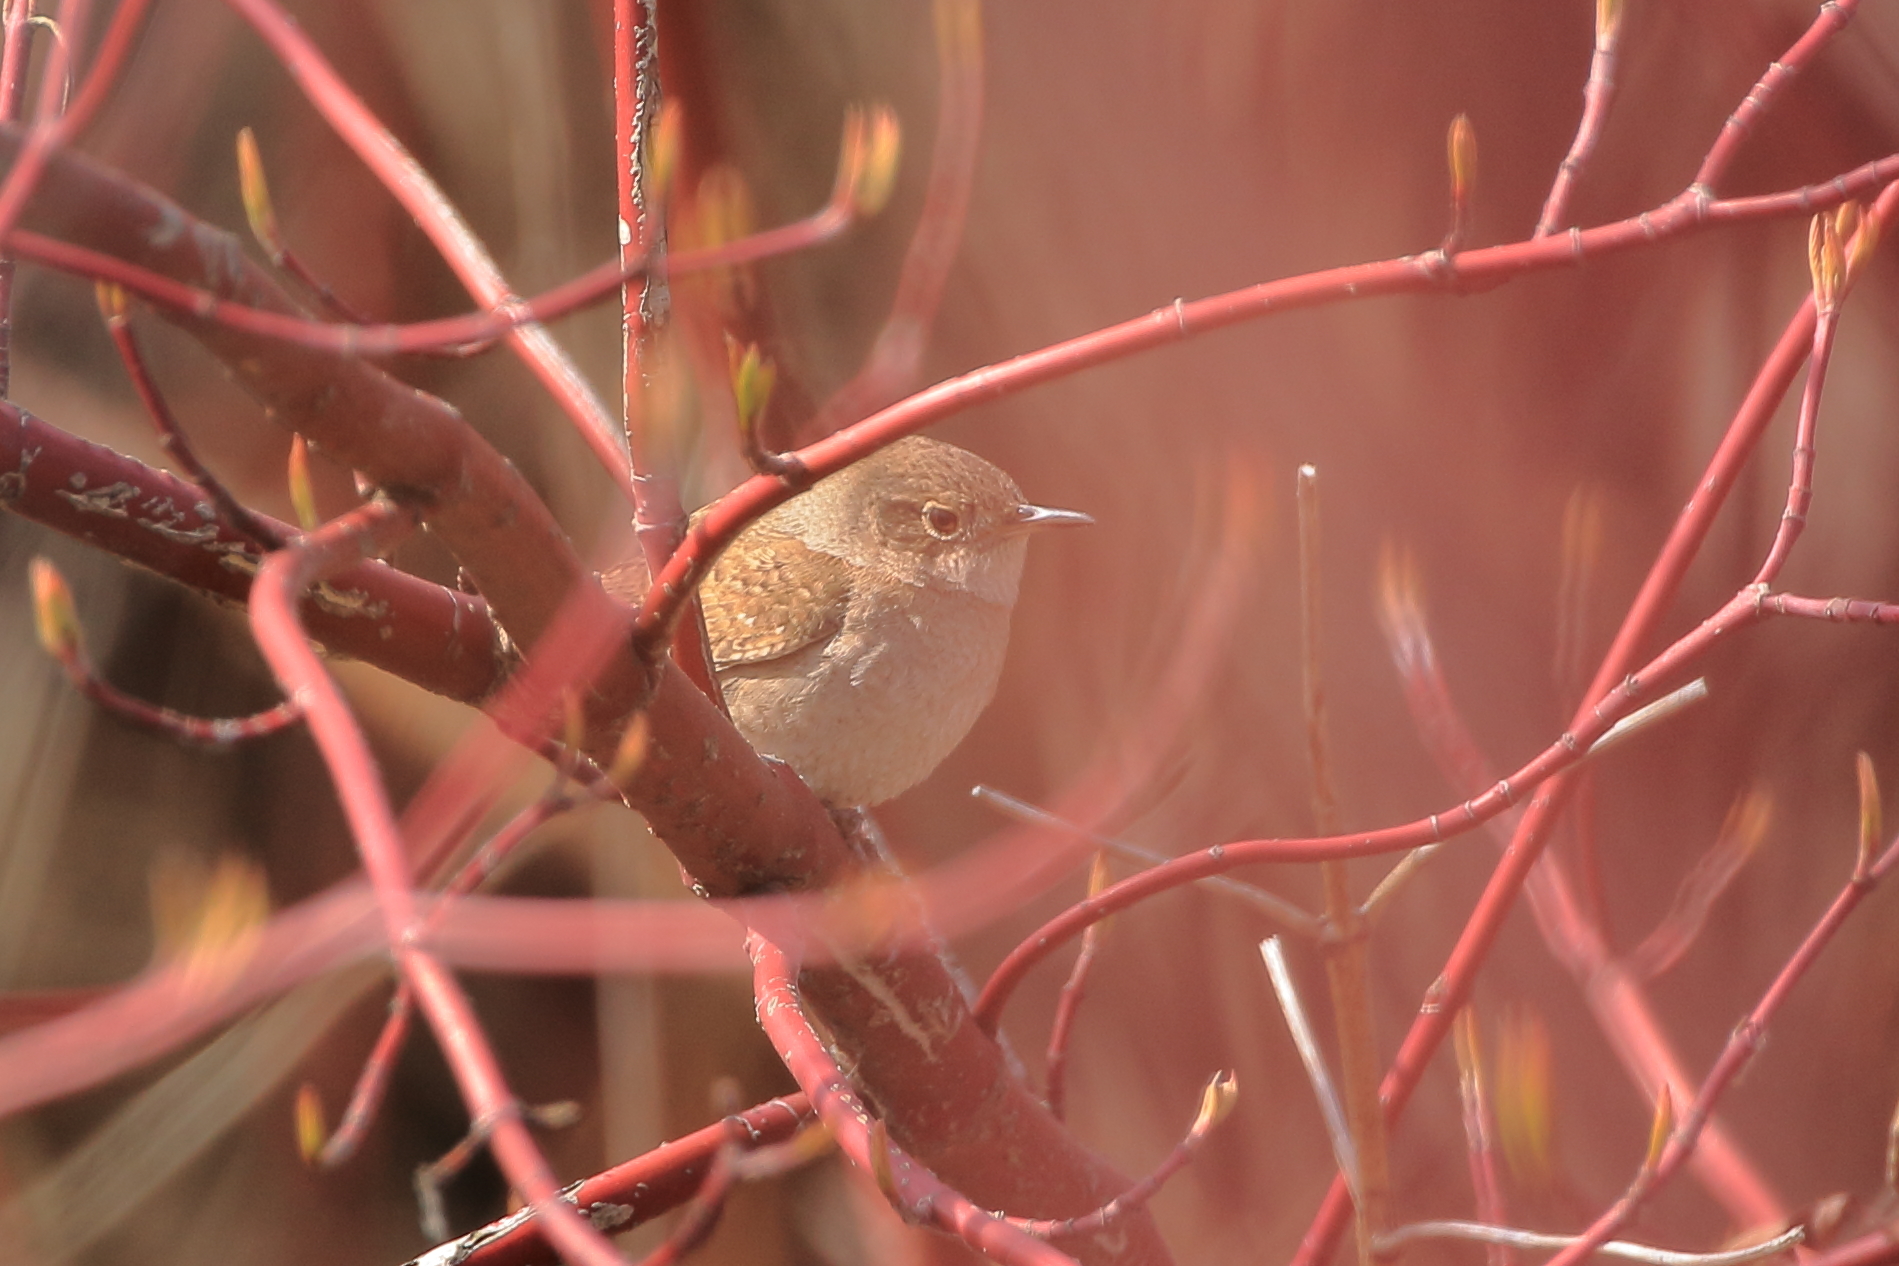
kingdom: Animalia
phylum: Chordata
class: Aves
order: Passeriformes
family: Troglodytidae
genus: Troglodytes
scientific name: Troglodytes aedon
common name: House wren
